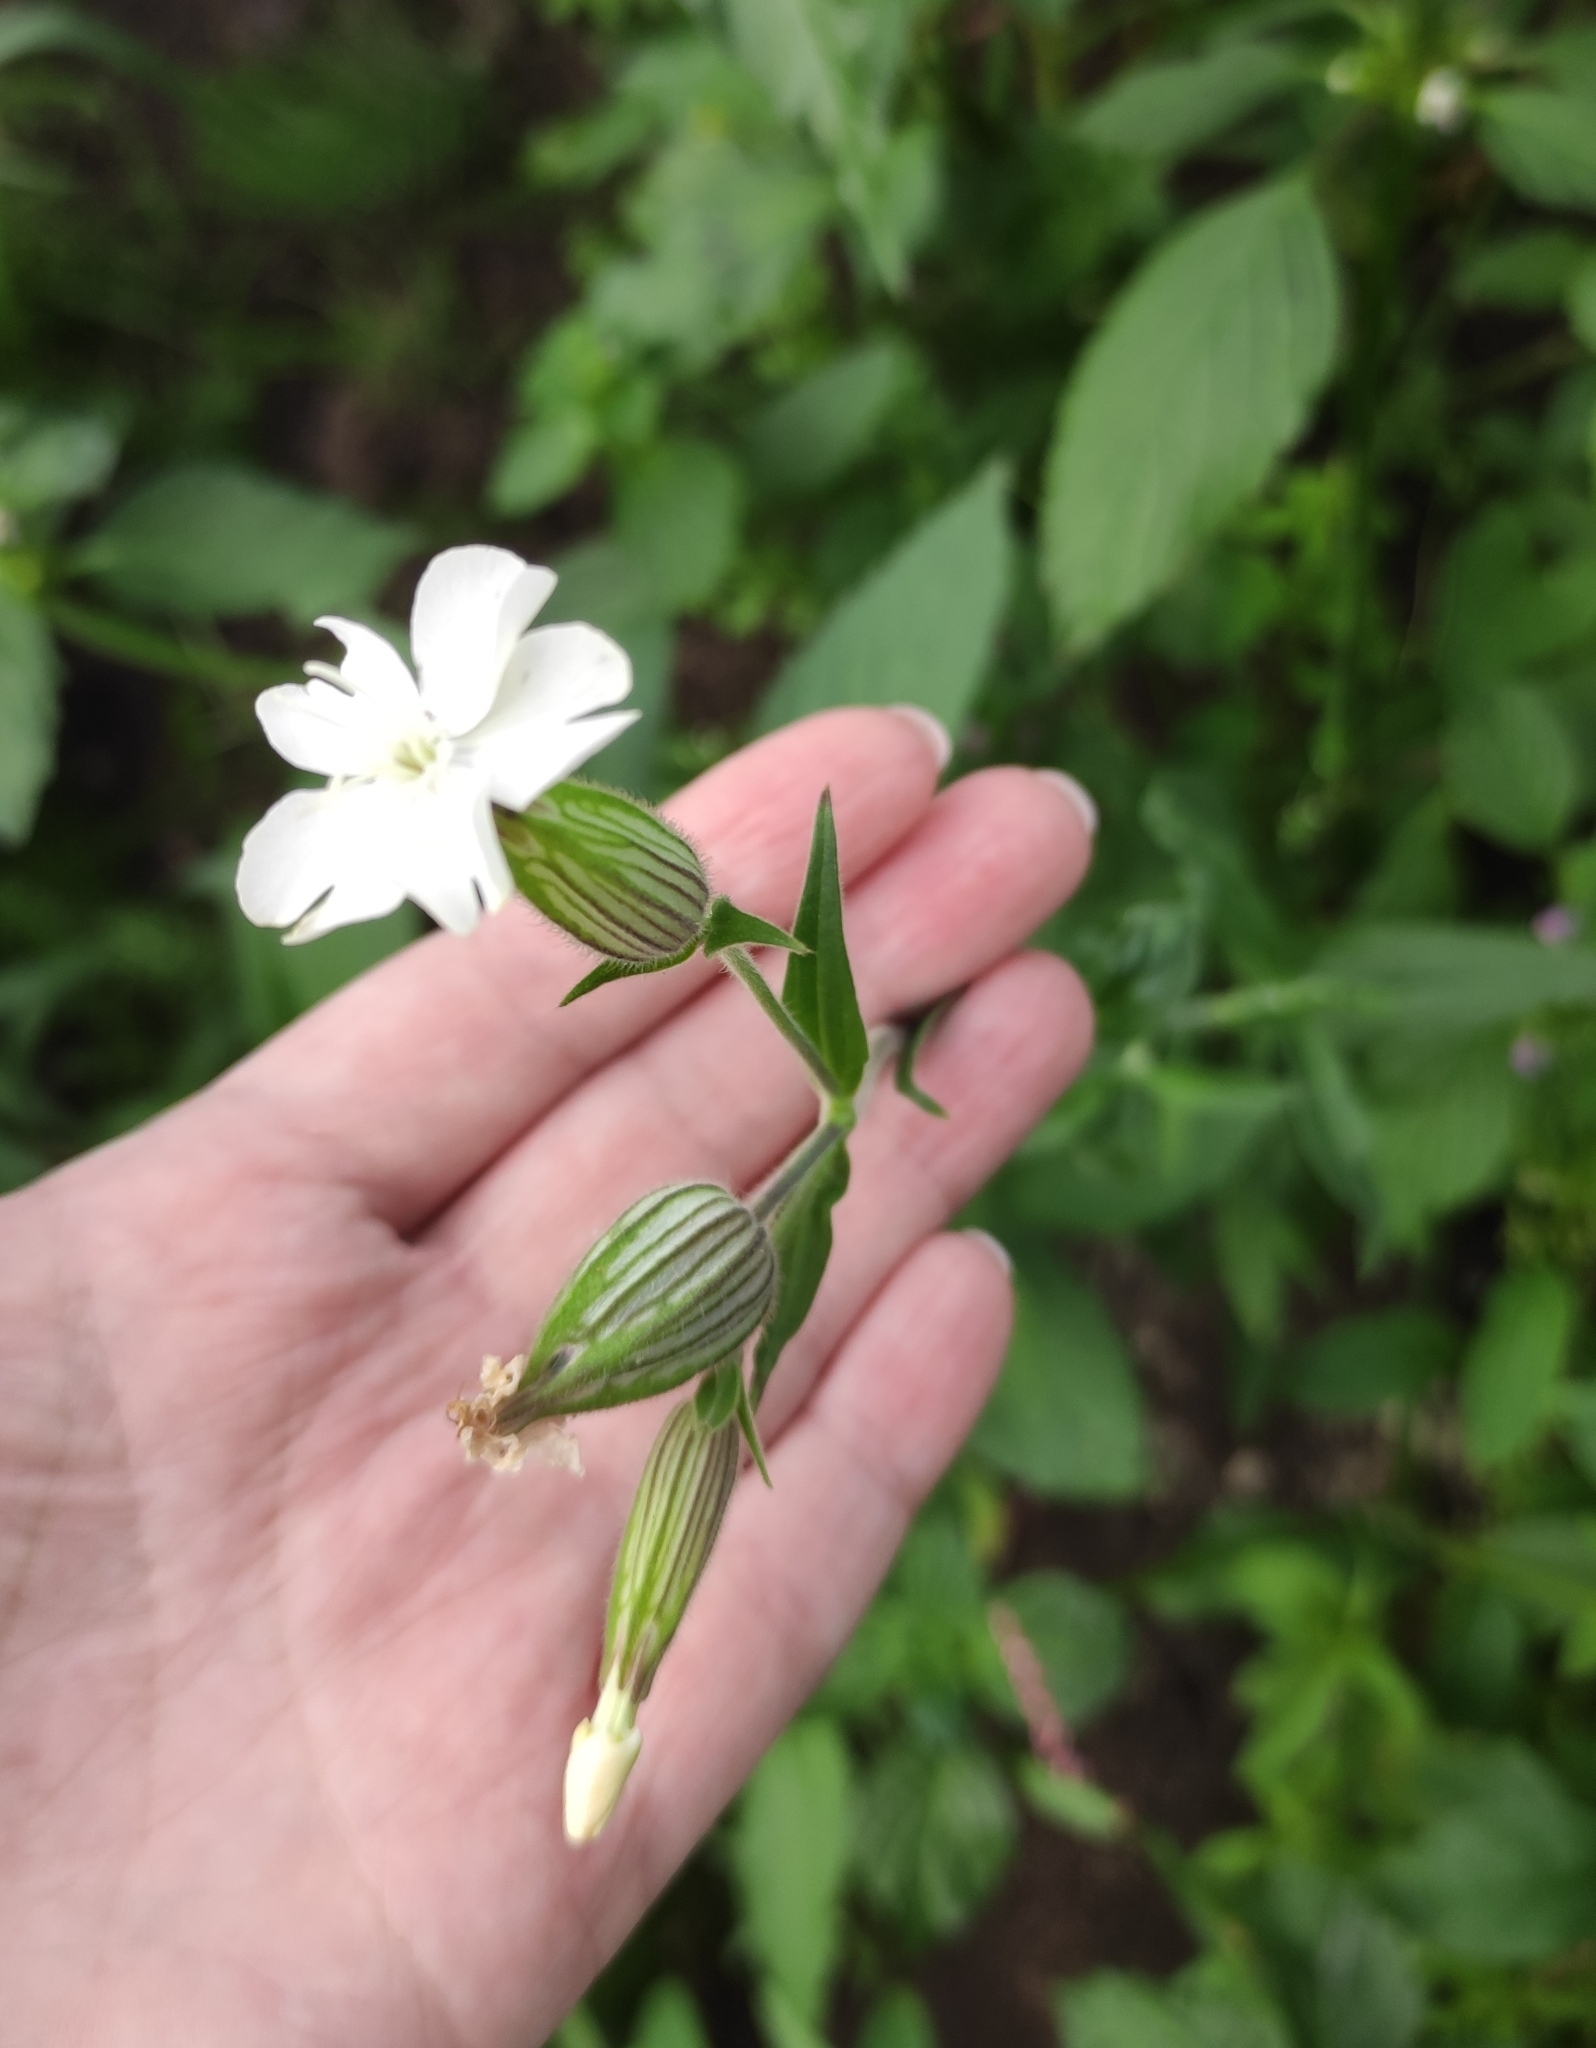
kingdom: Plantae
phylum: Tracheophyta
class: Magnoliopsida
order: Caryophyllales
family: Caryophyllaceae
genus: Silene
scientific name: Silene latifolia
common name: White campion
